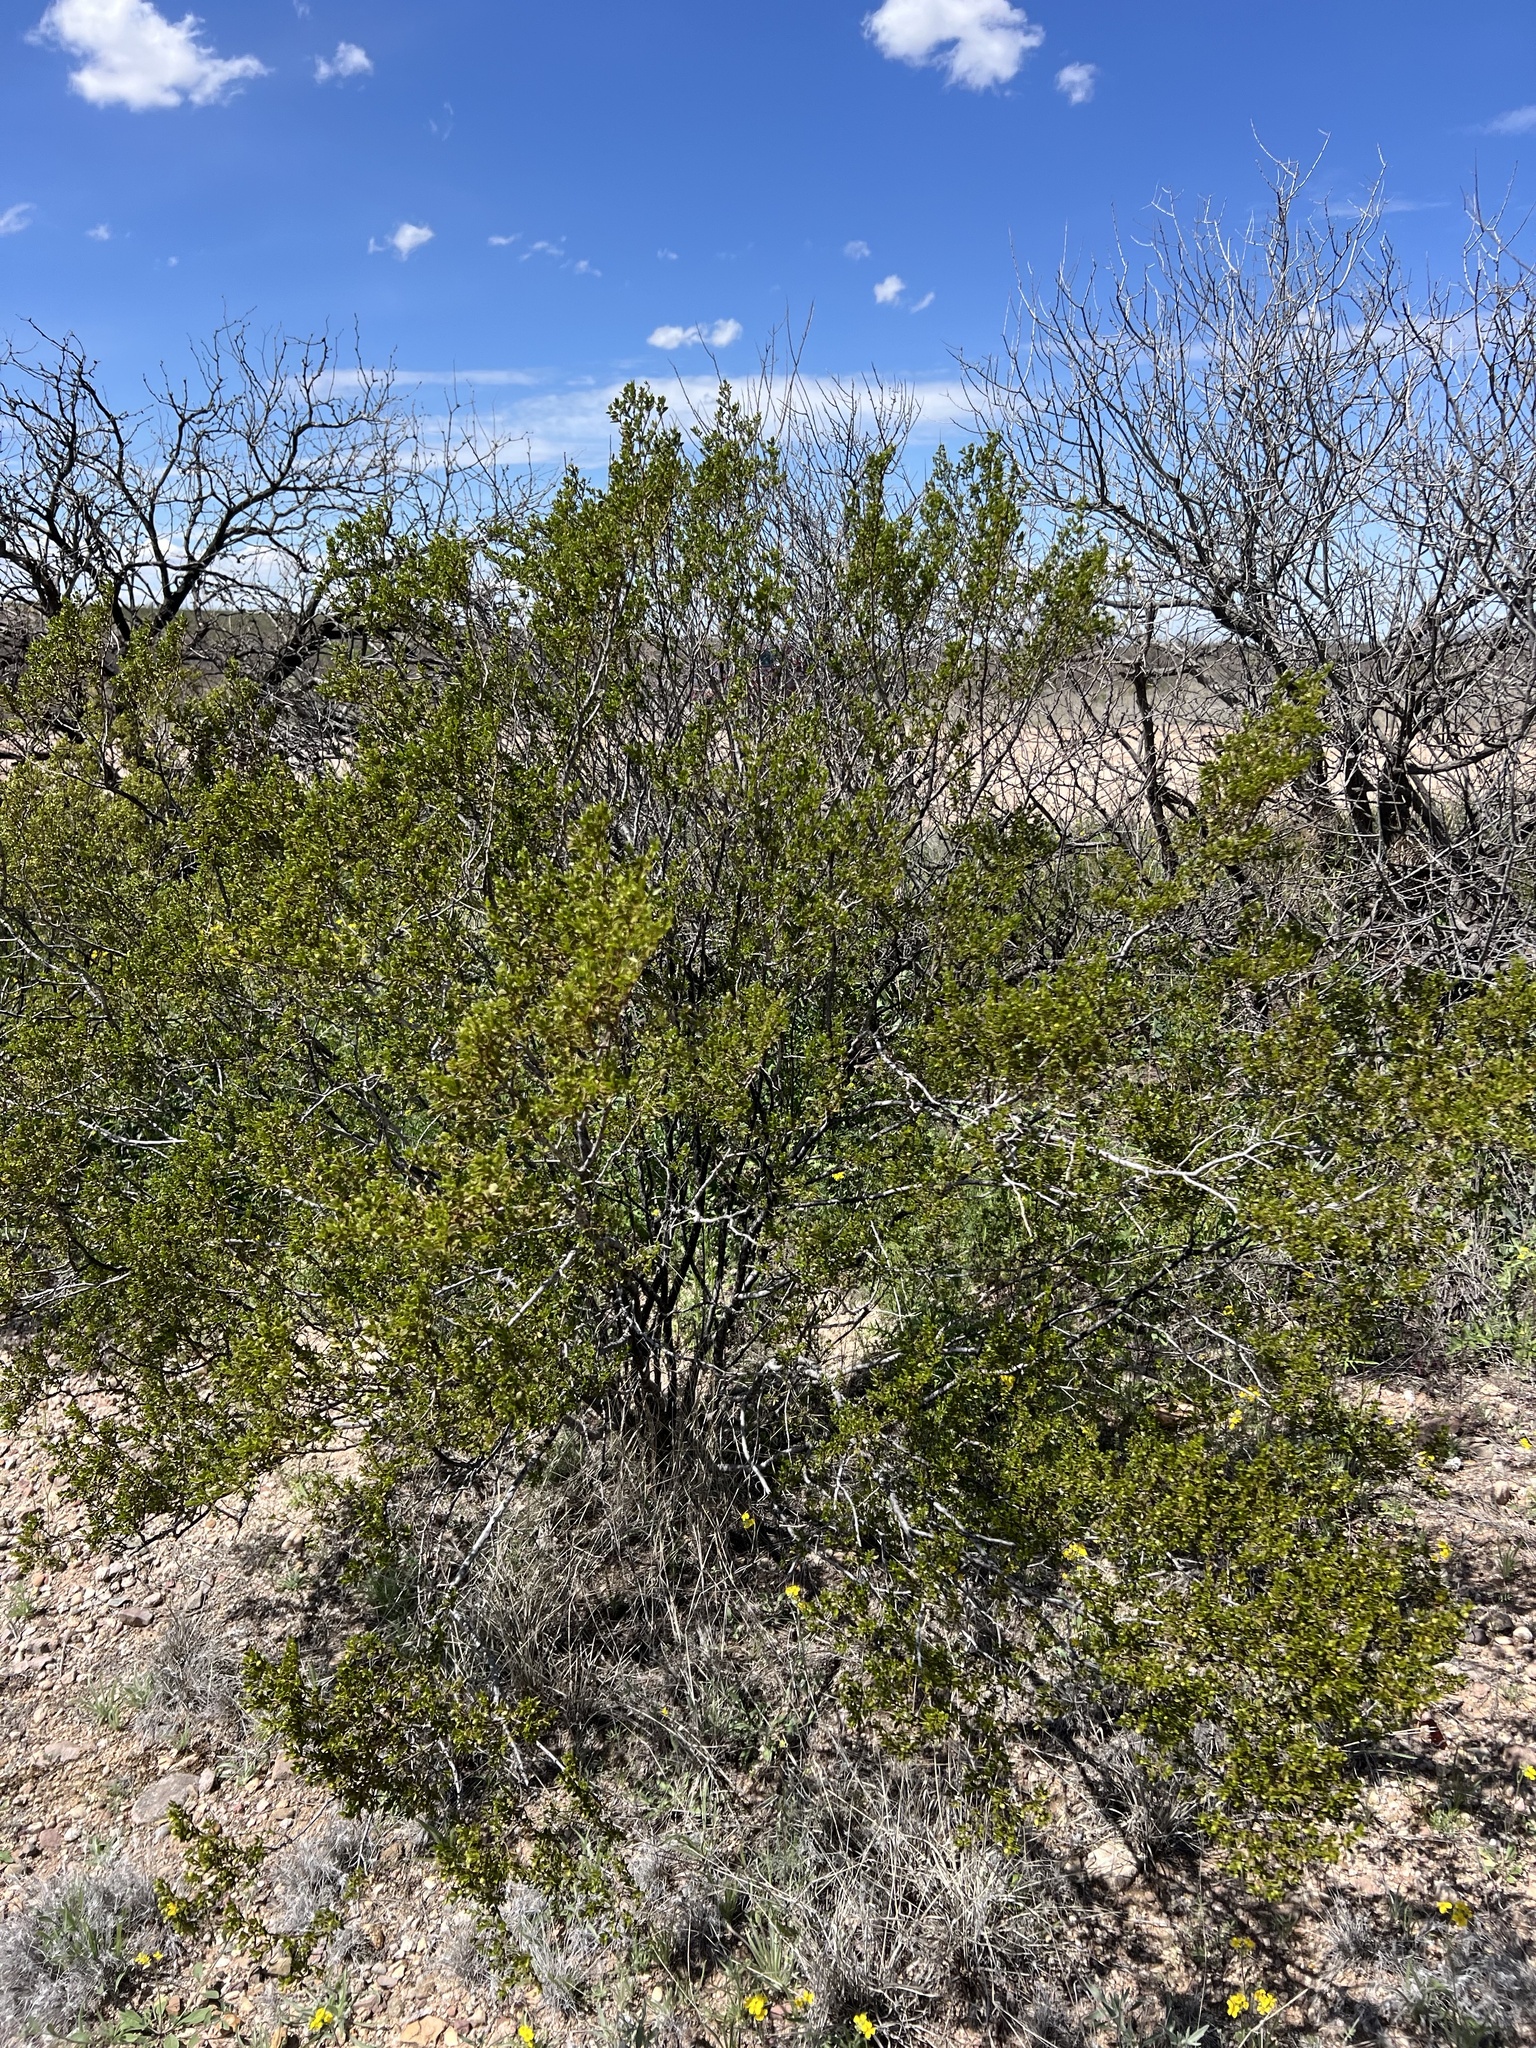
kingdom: Plantae
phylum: Tracheophyta
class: Magnoliopsida
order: Zygophyllales
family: Zygophyllaceae
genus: Larrea
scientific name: Larrea tridentata
